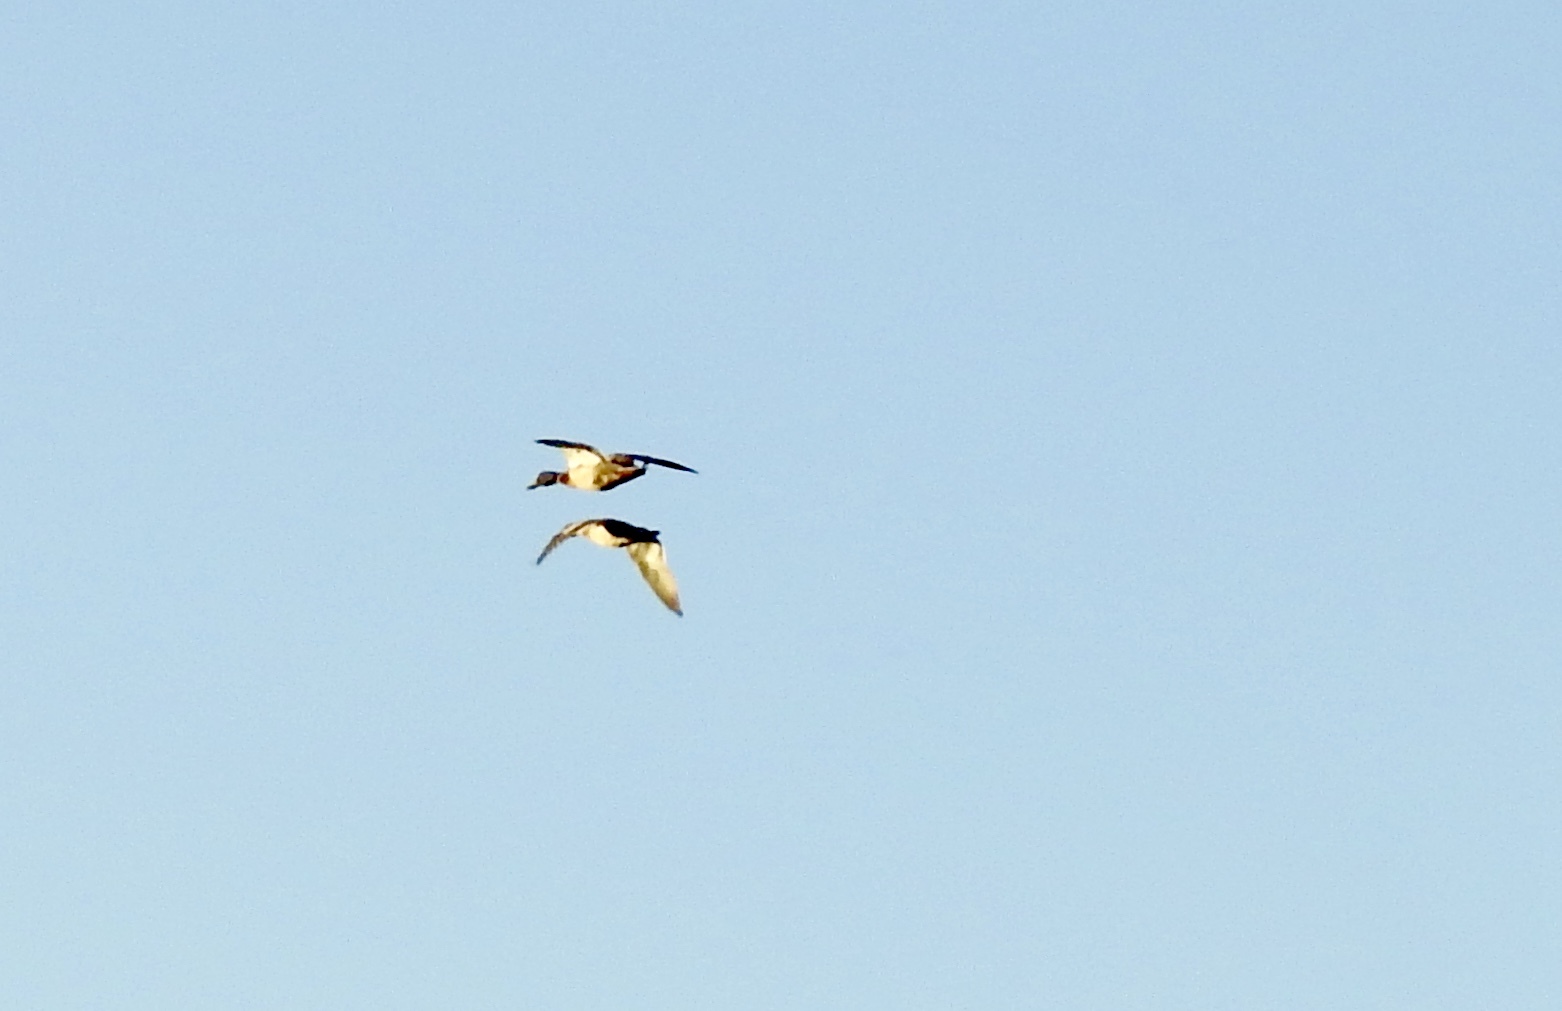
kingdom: Animalia
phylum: Chordata
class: Aves
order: Anseriformes
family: Anatidae
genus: Anas
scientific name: Anas platyrhynchos
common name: Mallard
